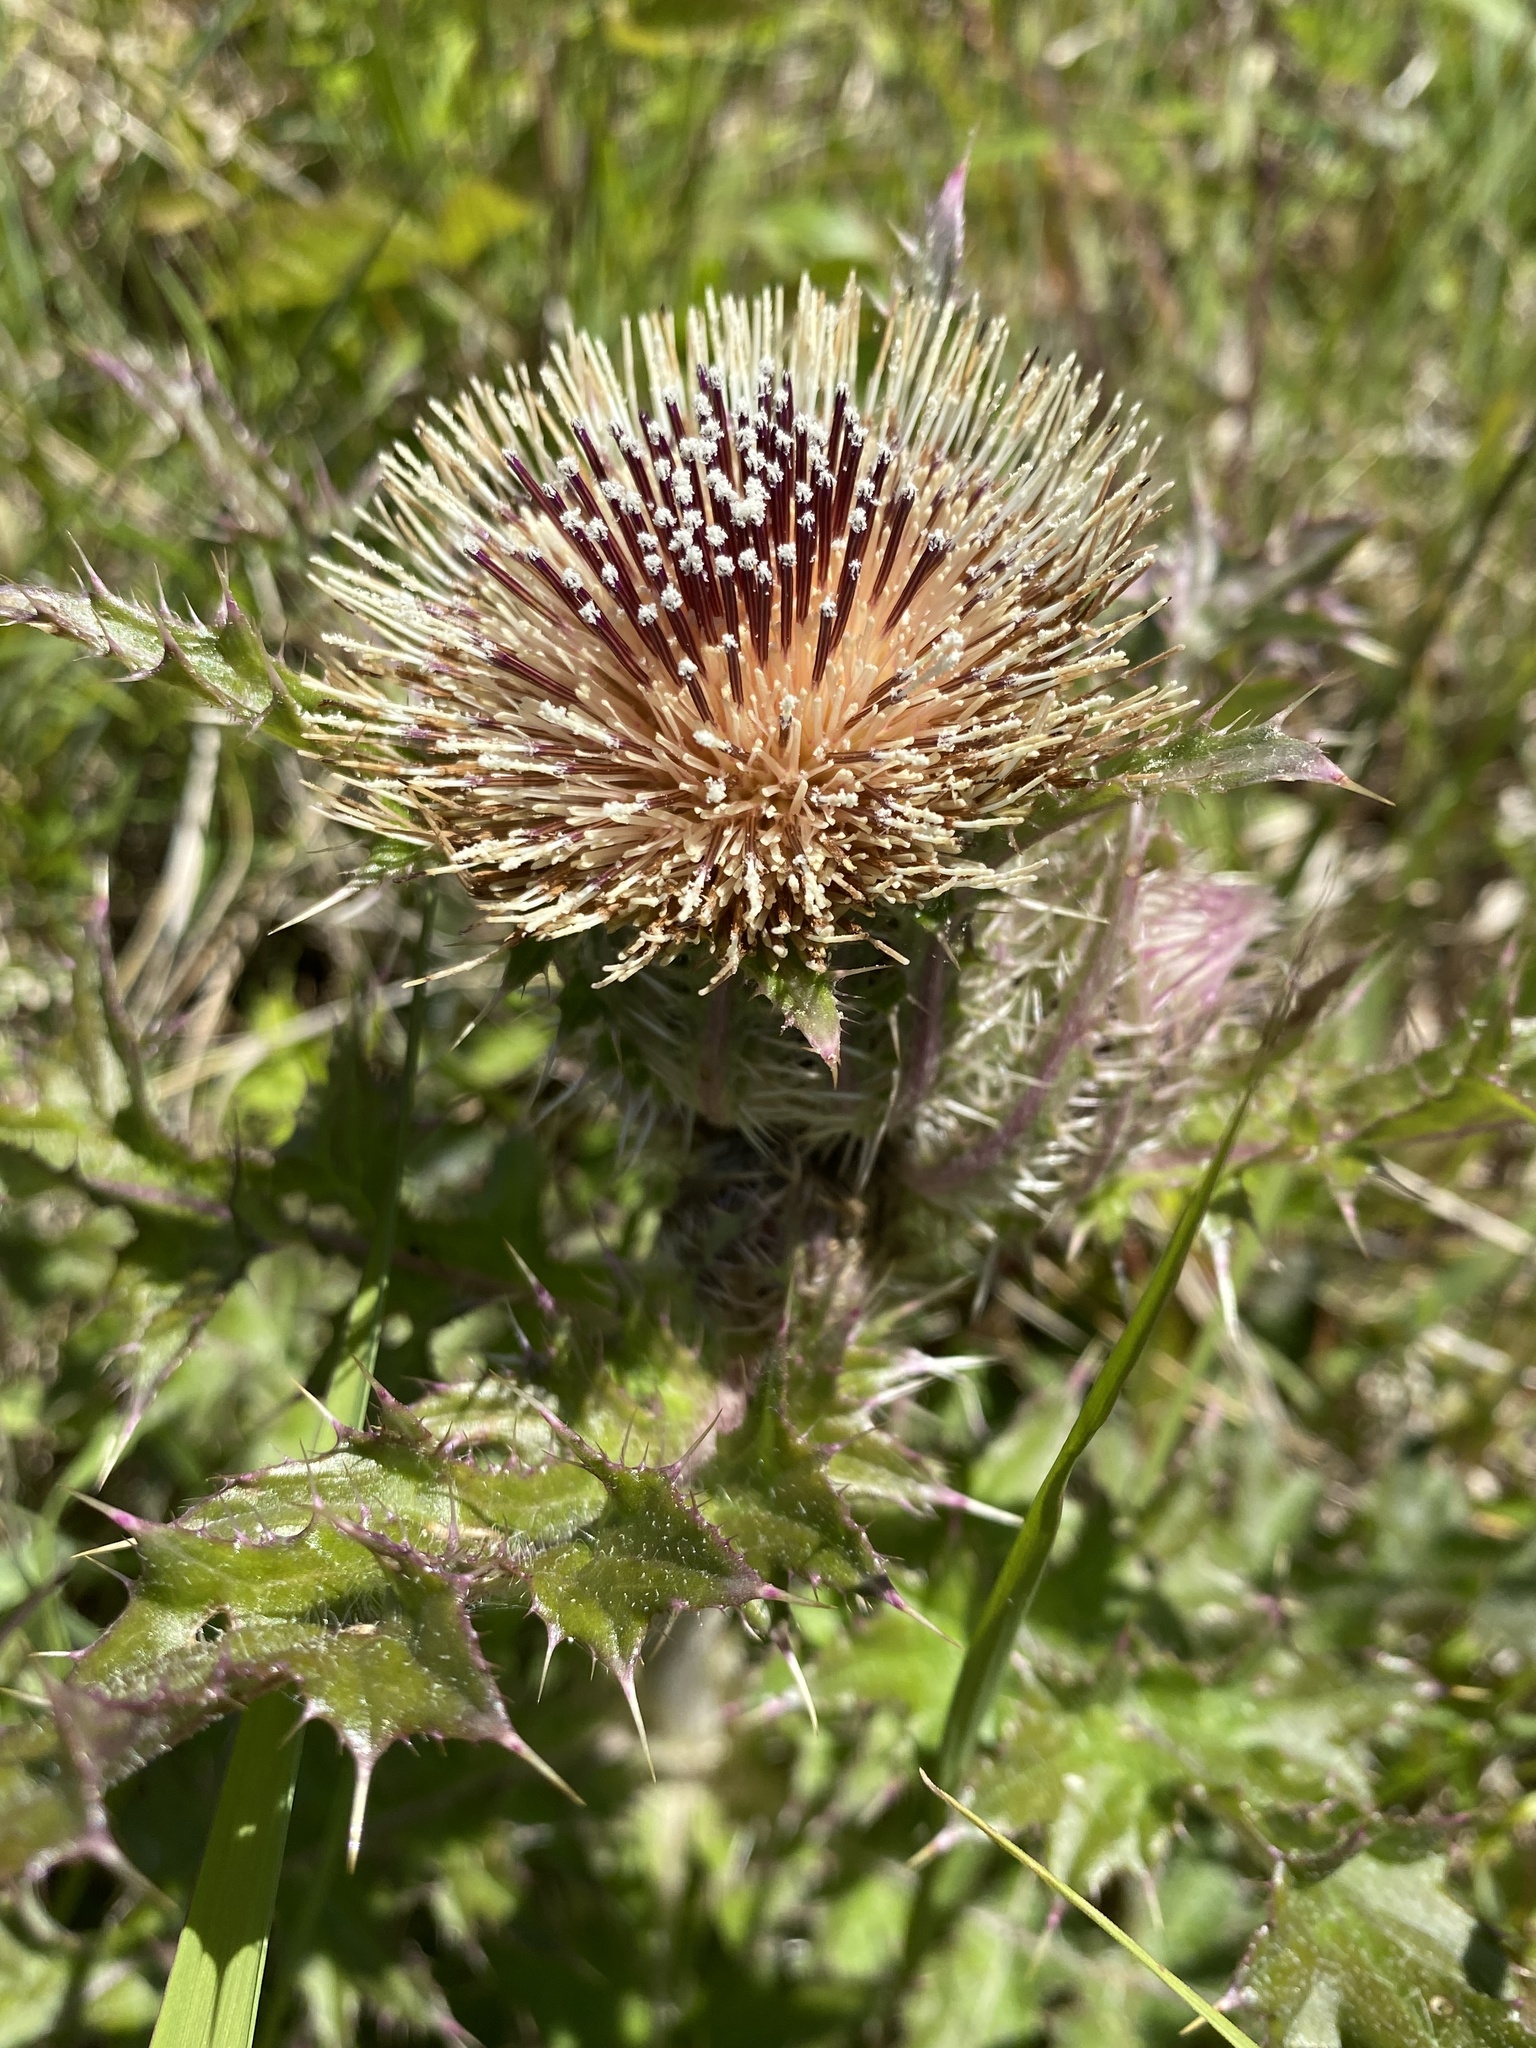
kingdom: Plantae
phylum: Tracheophyta
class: Magnoliopsida
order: Asterales
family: Asteraceae
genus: Cirsium
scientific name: Cirsium horridulum
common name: Bristly thistle
